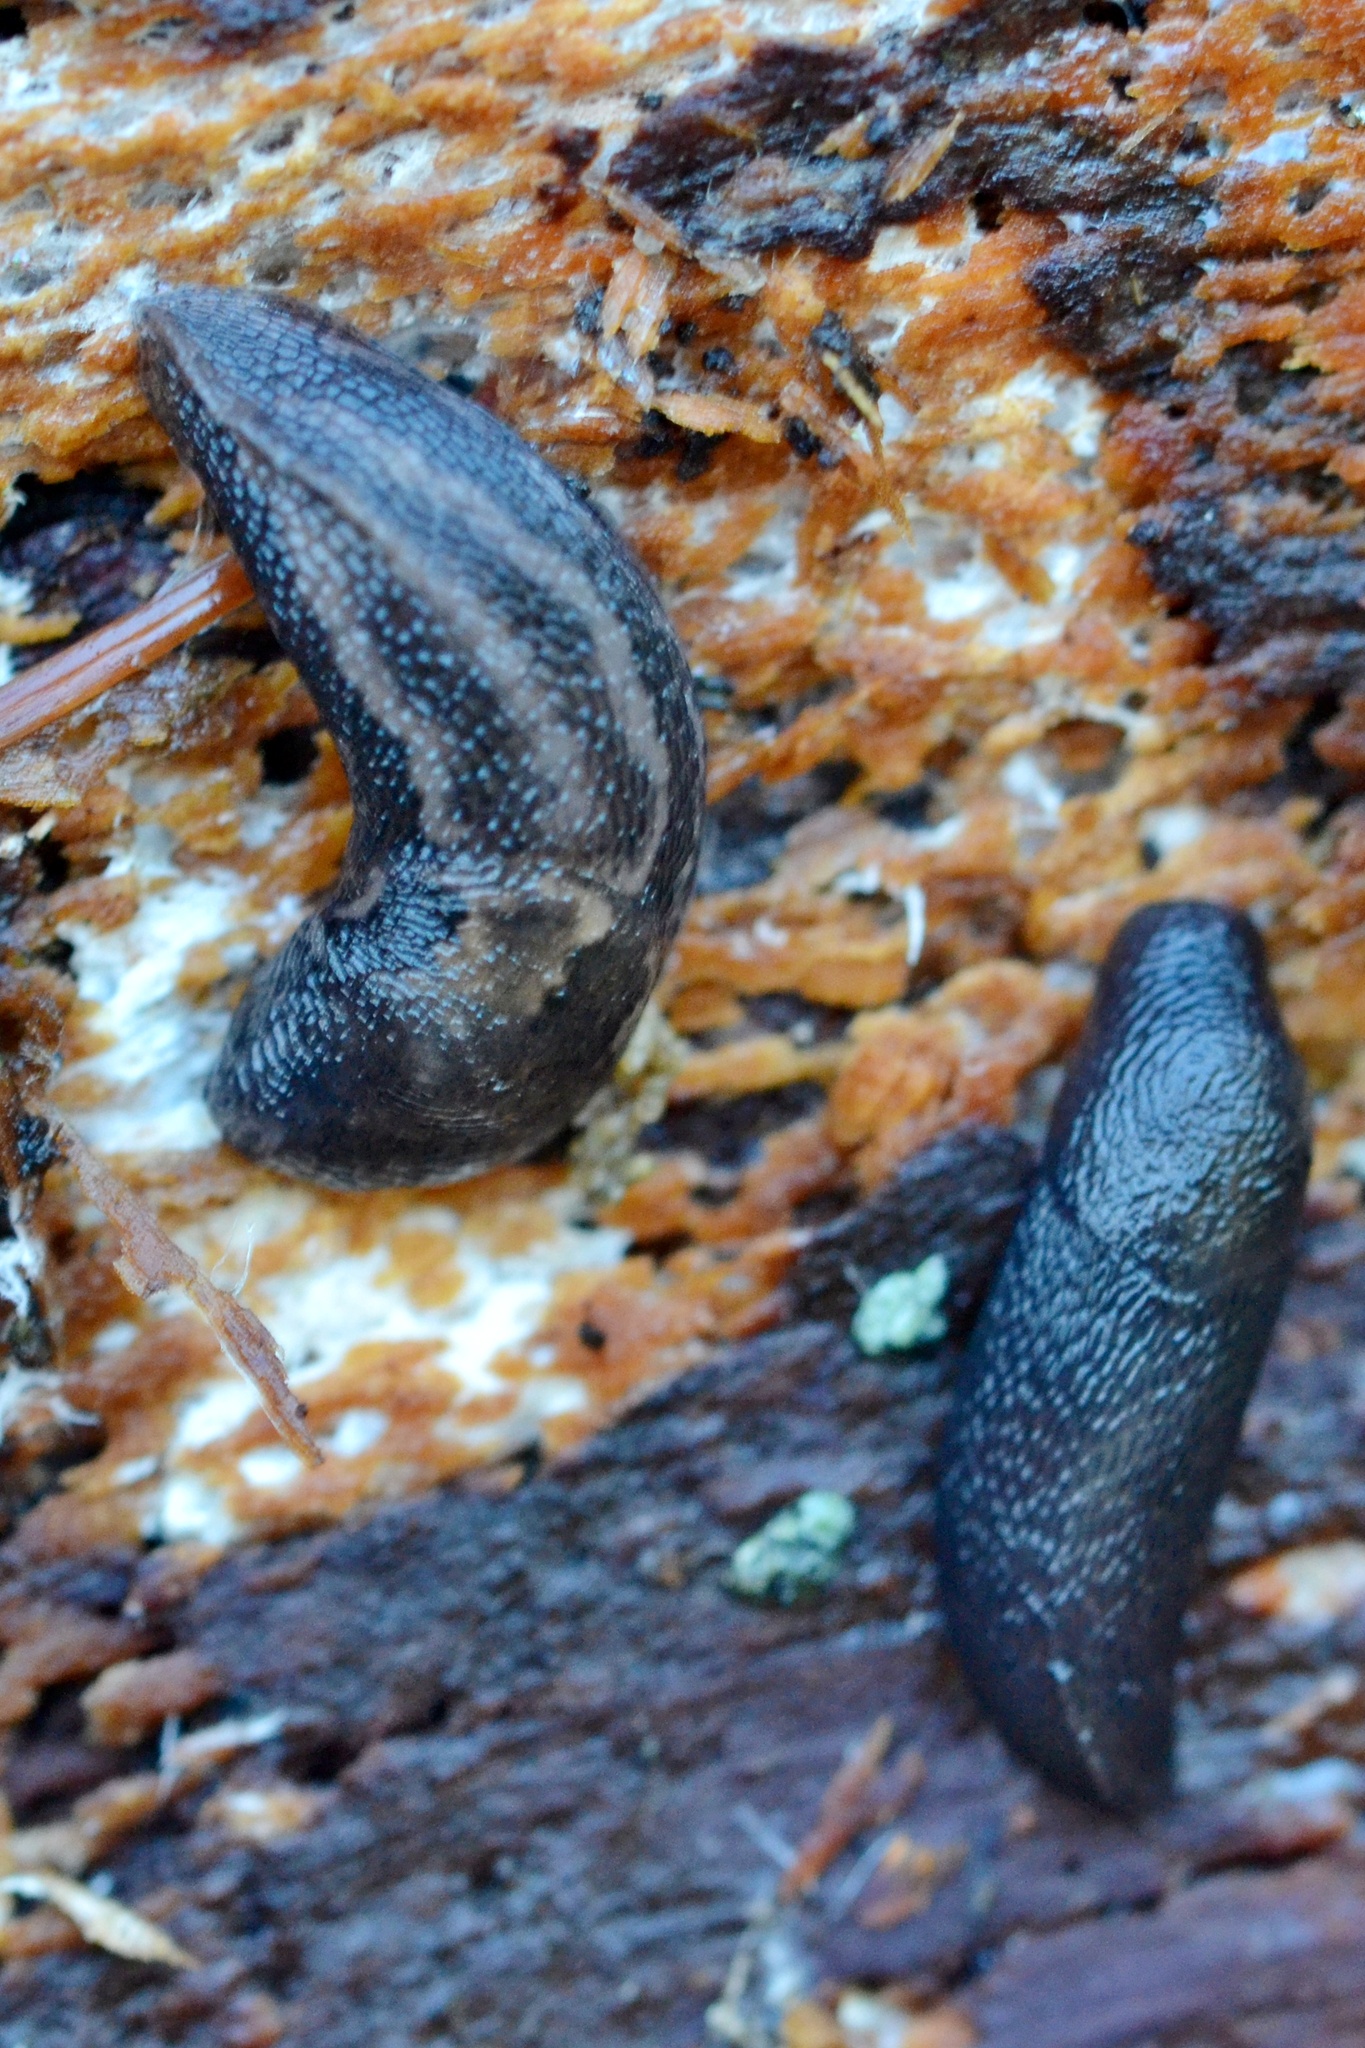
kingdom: Animalia
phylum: Mollusca
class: Gastropoda
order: Stylommatophora
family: Limacidae
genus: Limax
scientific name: Limax maximus
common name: Great grey slug
